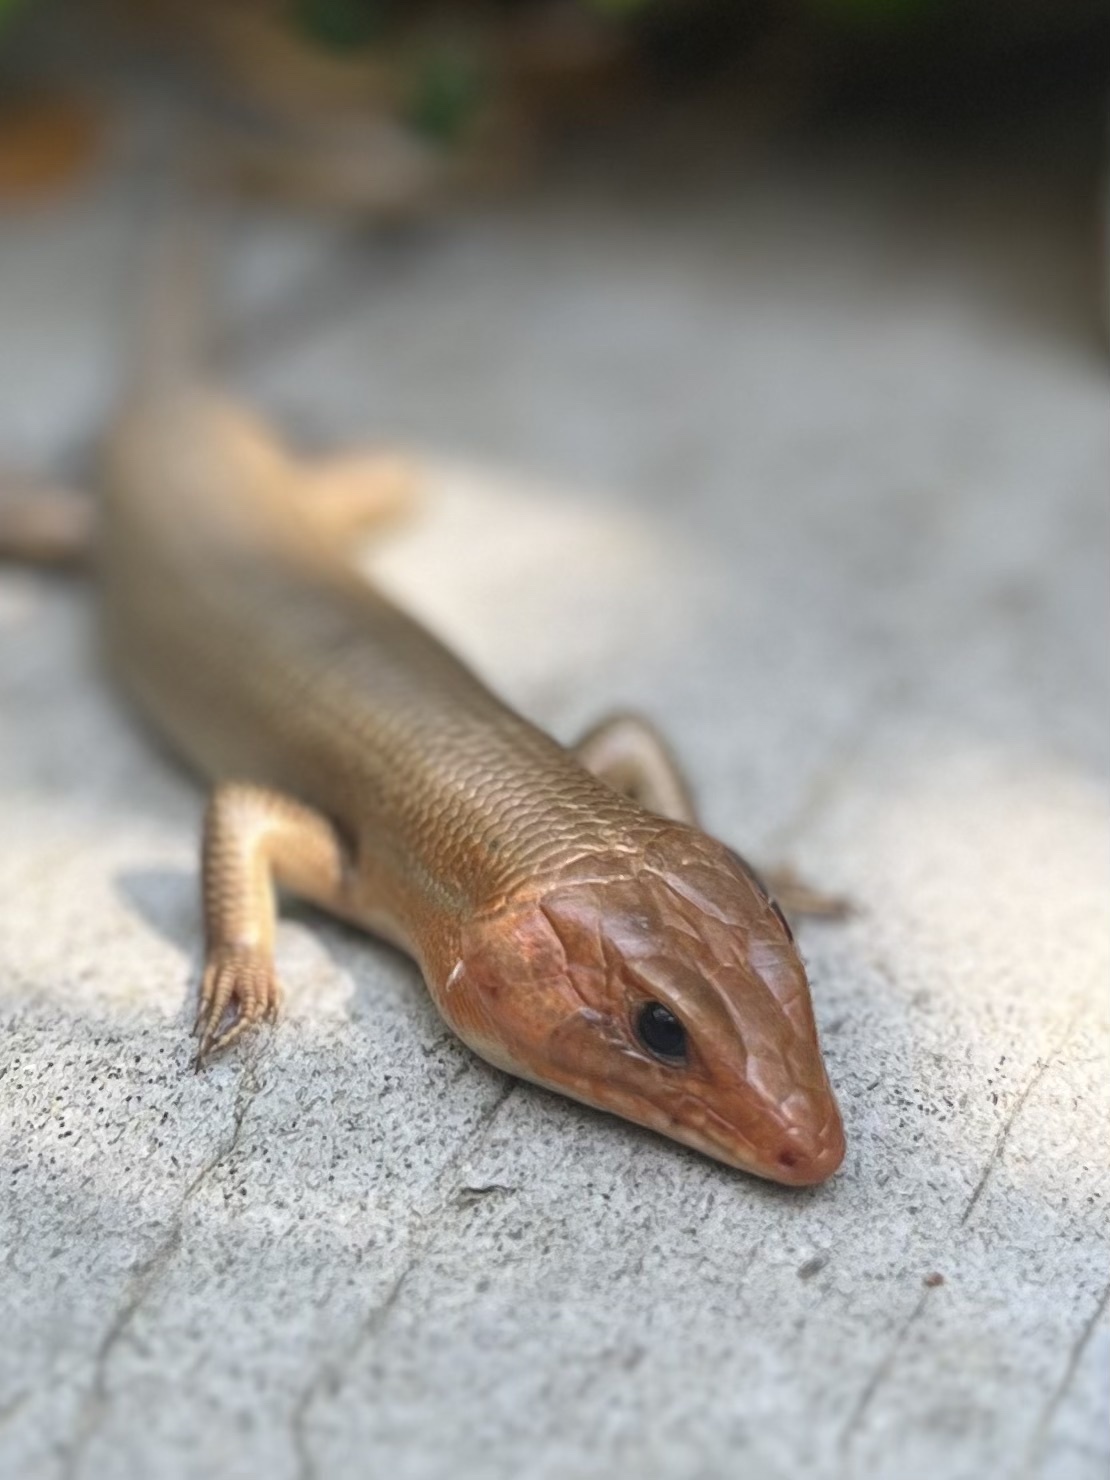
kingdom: Animalia
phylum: Chordata
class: Squamata
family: Scincidae
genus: Plestiodon
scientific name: Plestiodon laticeps
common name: Broadhead skink
